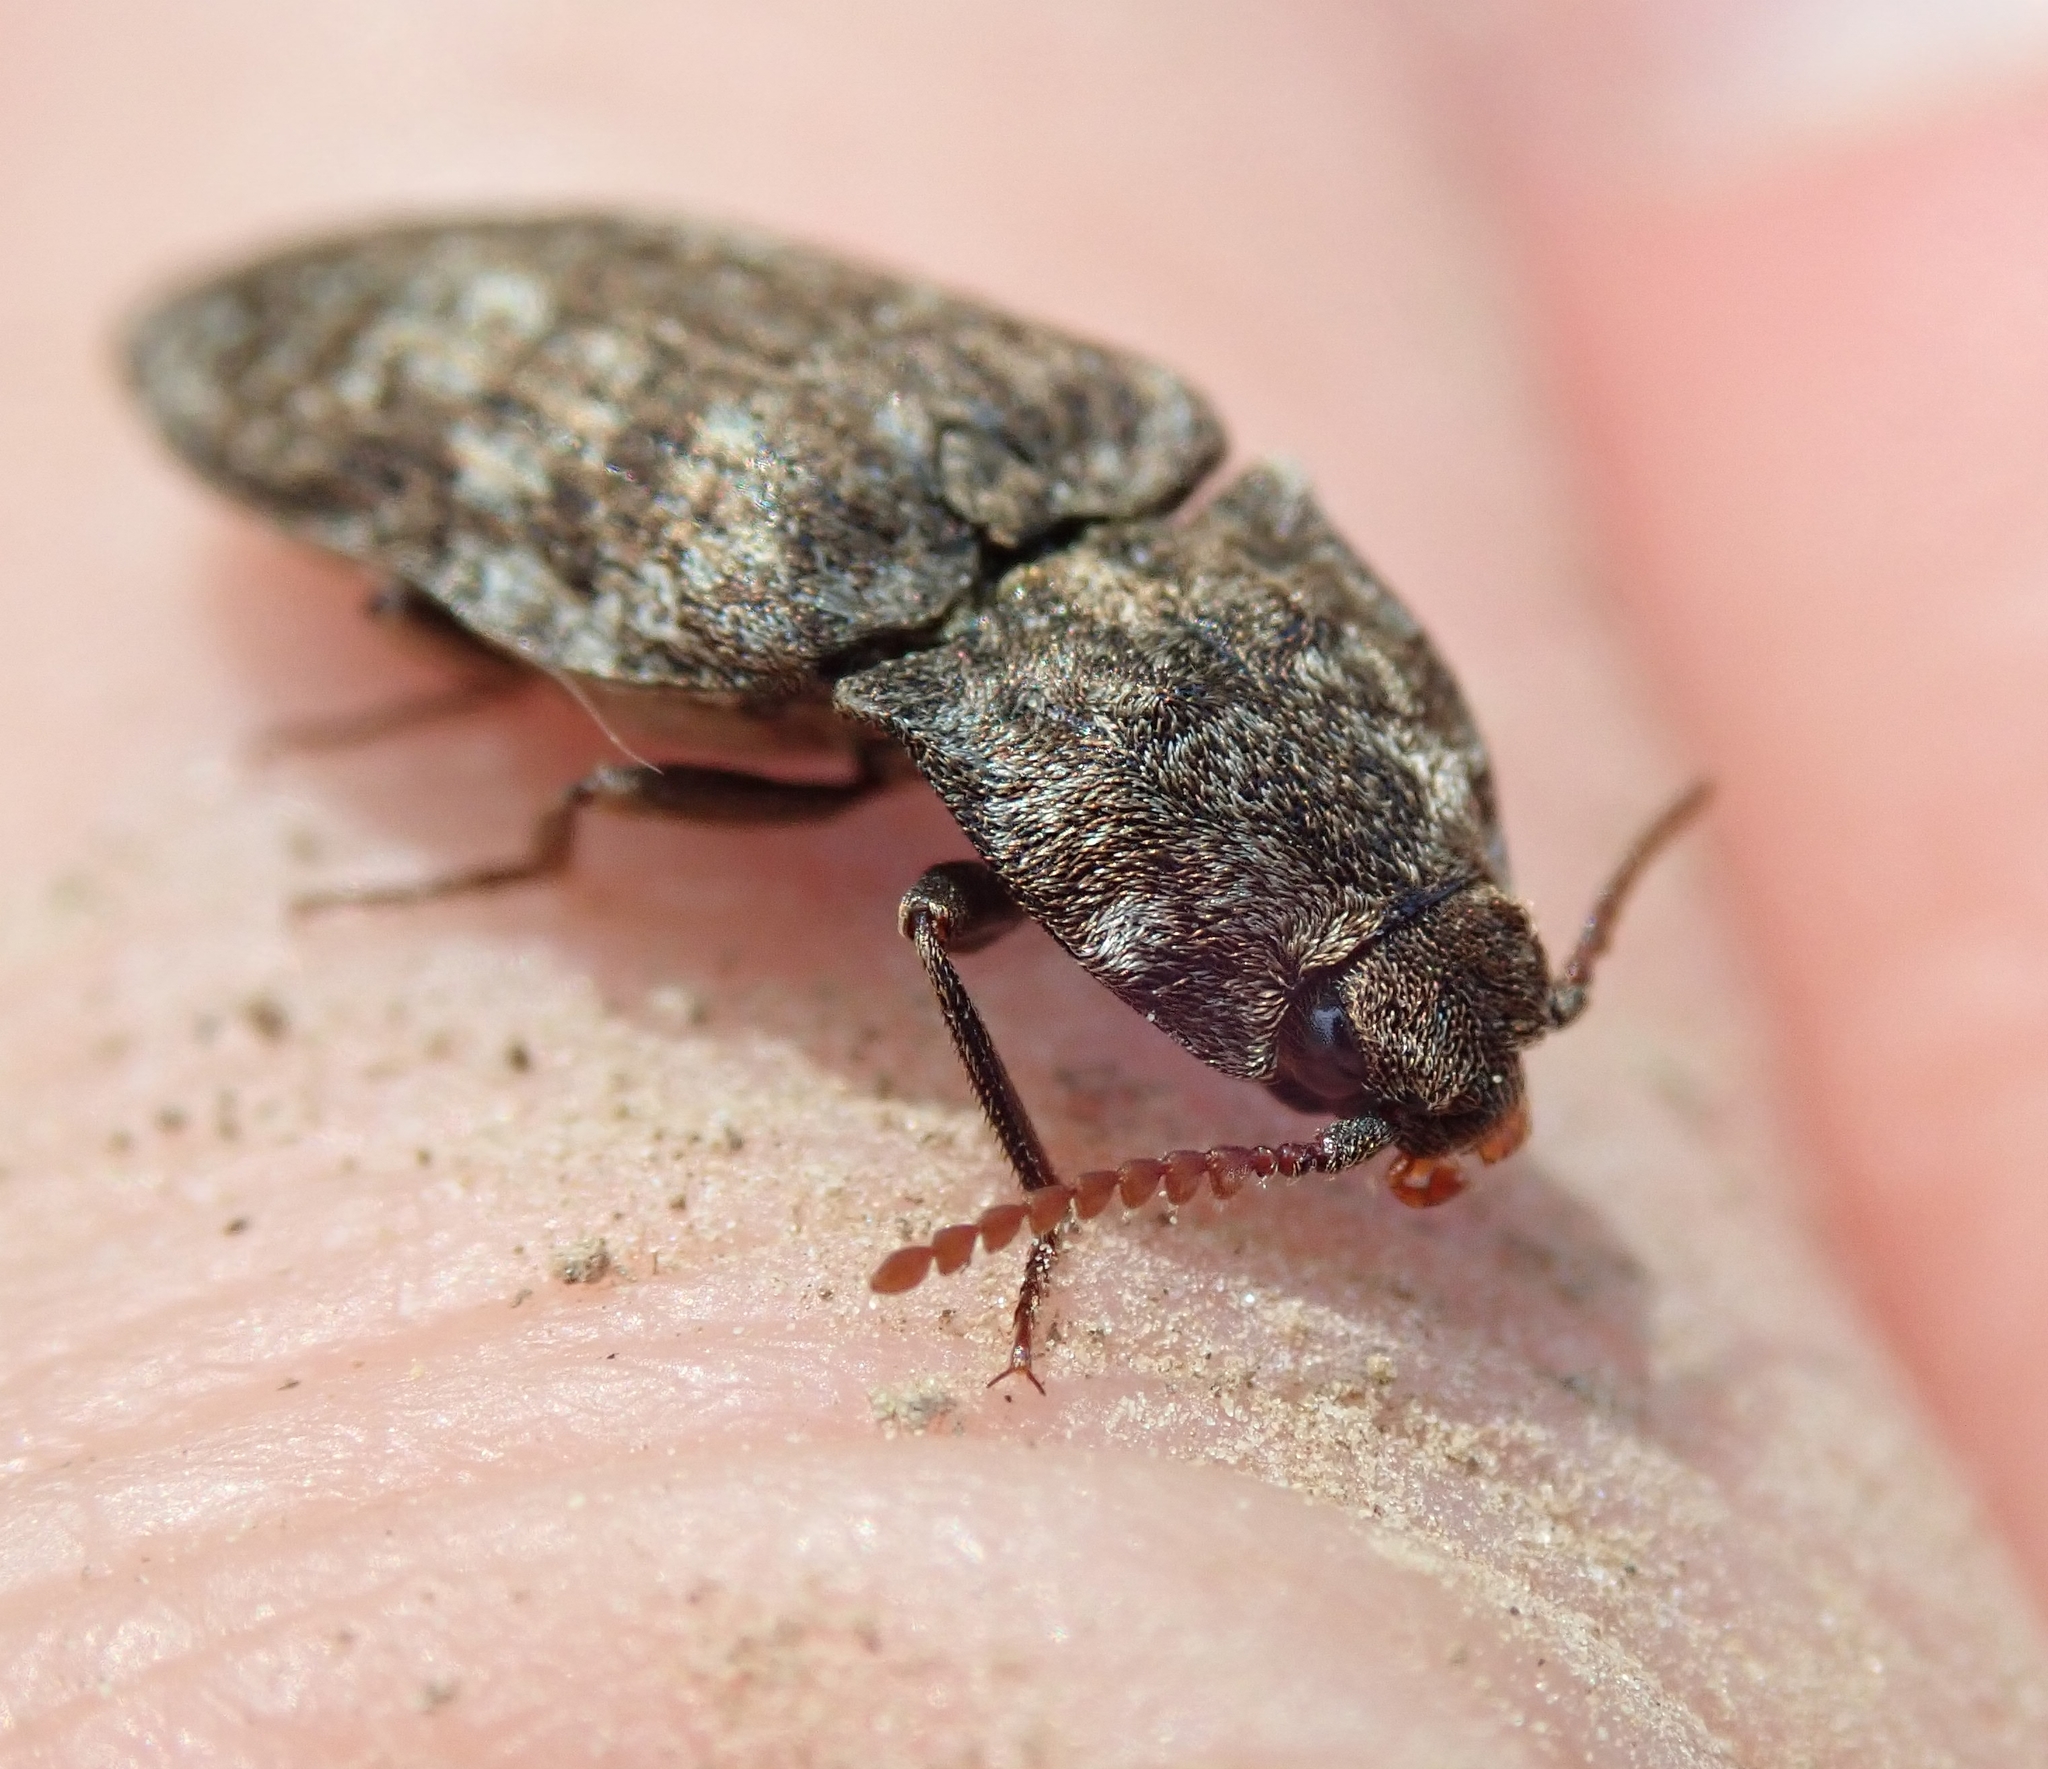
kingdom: Animalia
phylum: Arthropoda
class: Insecta
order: Coleoptera
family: Elateridae
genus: Agrypnus
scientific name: Agrypnus murinus
